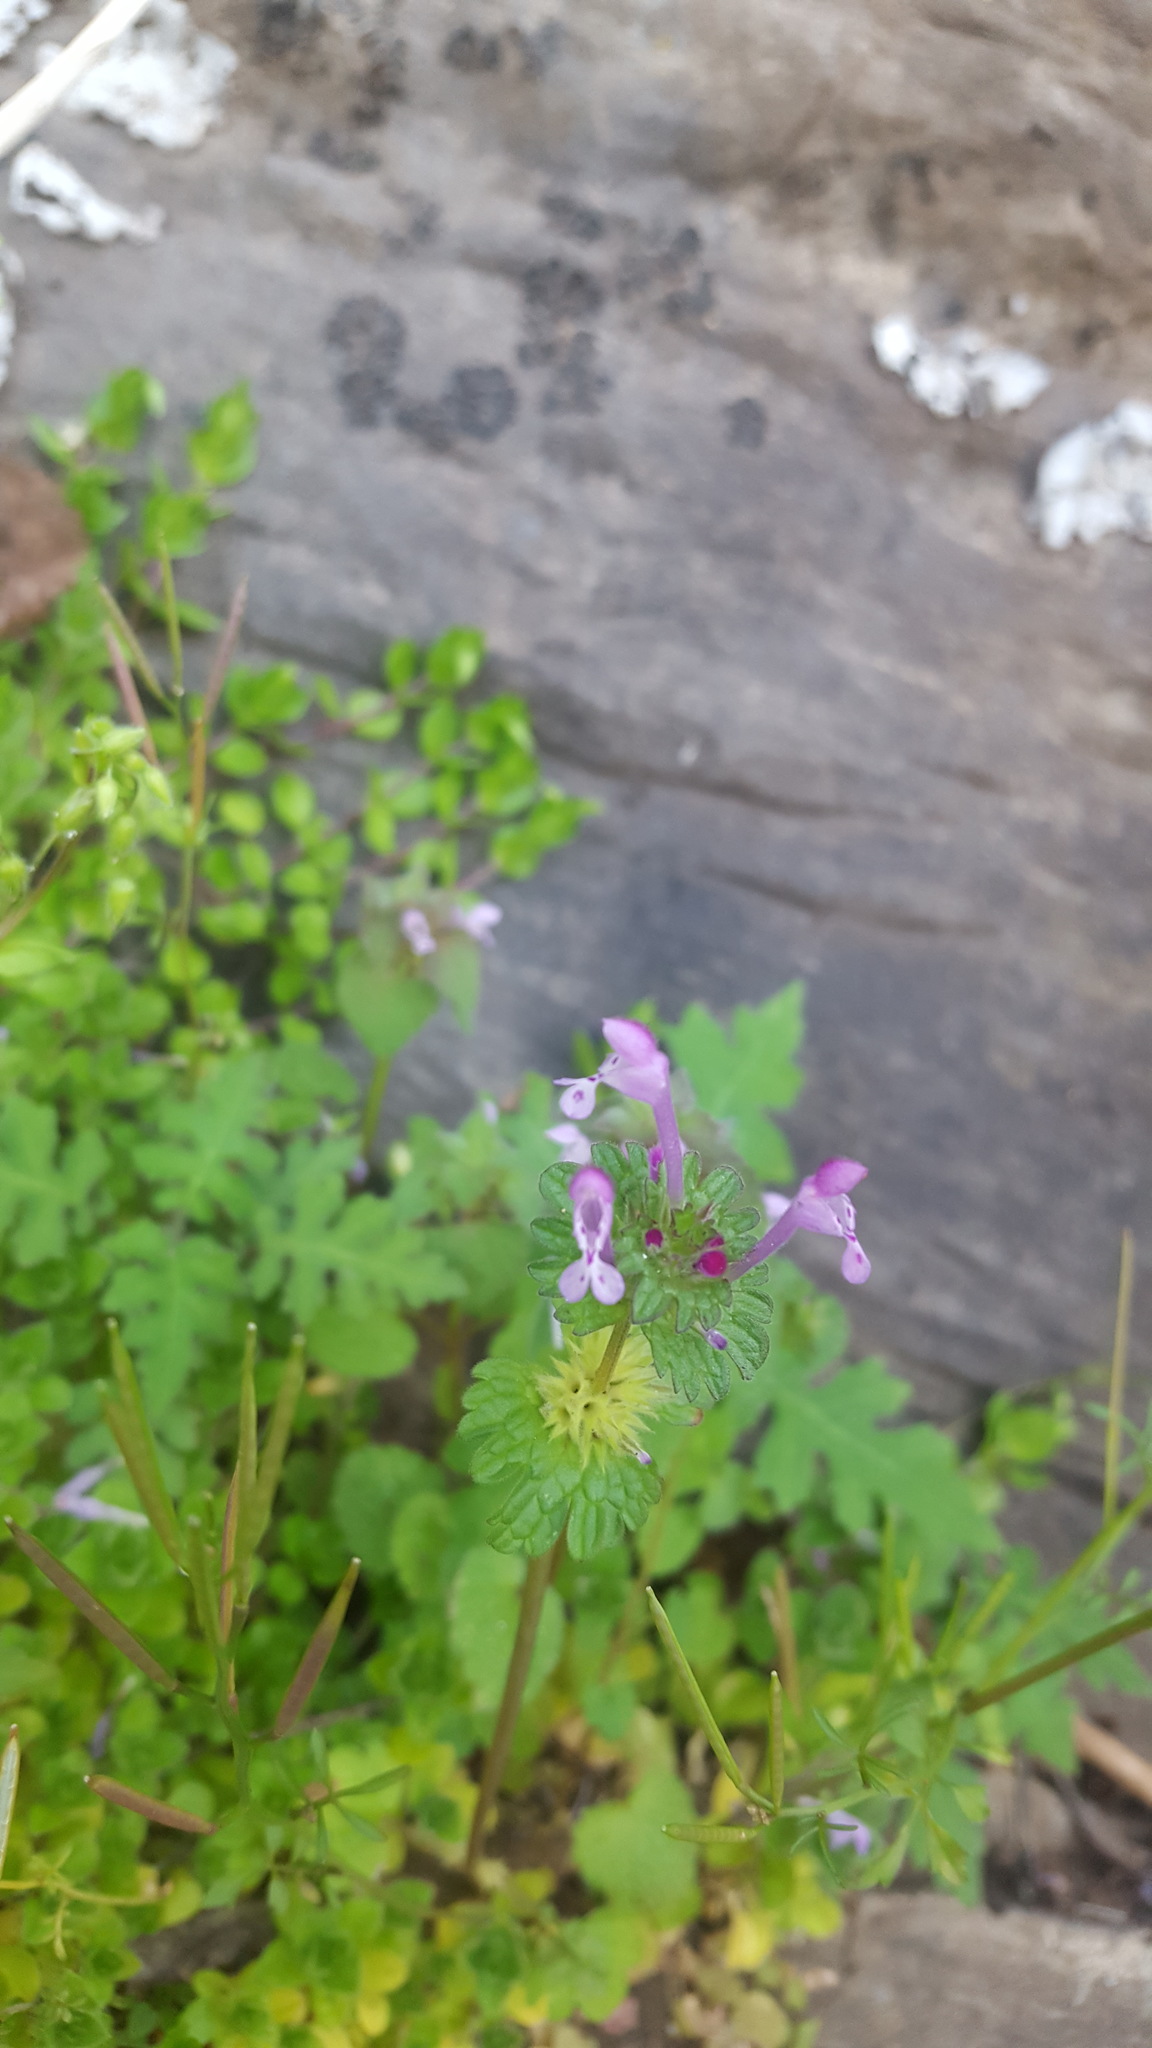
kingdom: Plantae
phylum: Tracheophyta
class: Magnoliopsida
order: Lamiales
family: Lamiaceae
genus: Lamium
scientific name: Lamium amplexicaule
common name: Henbit dead-nettle
